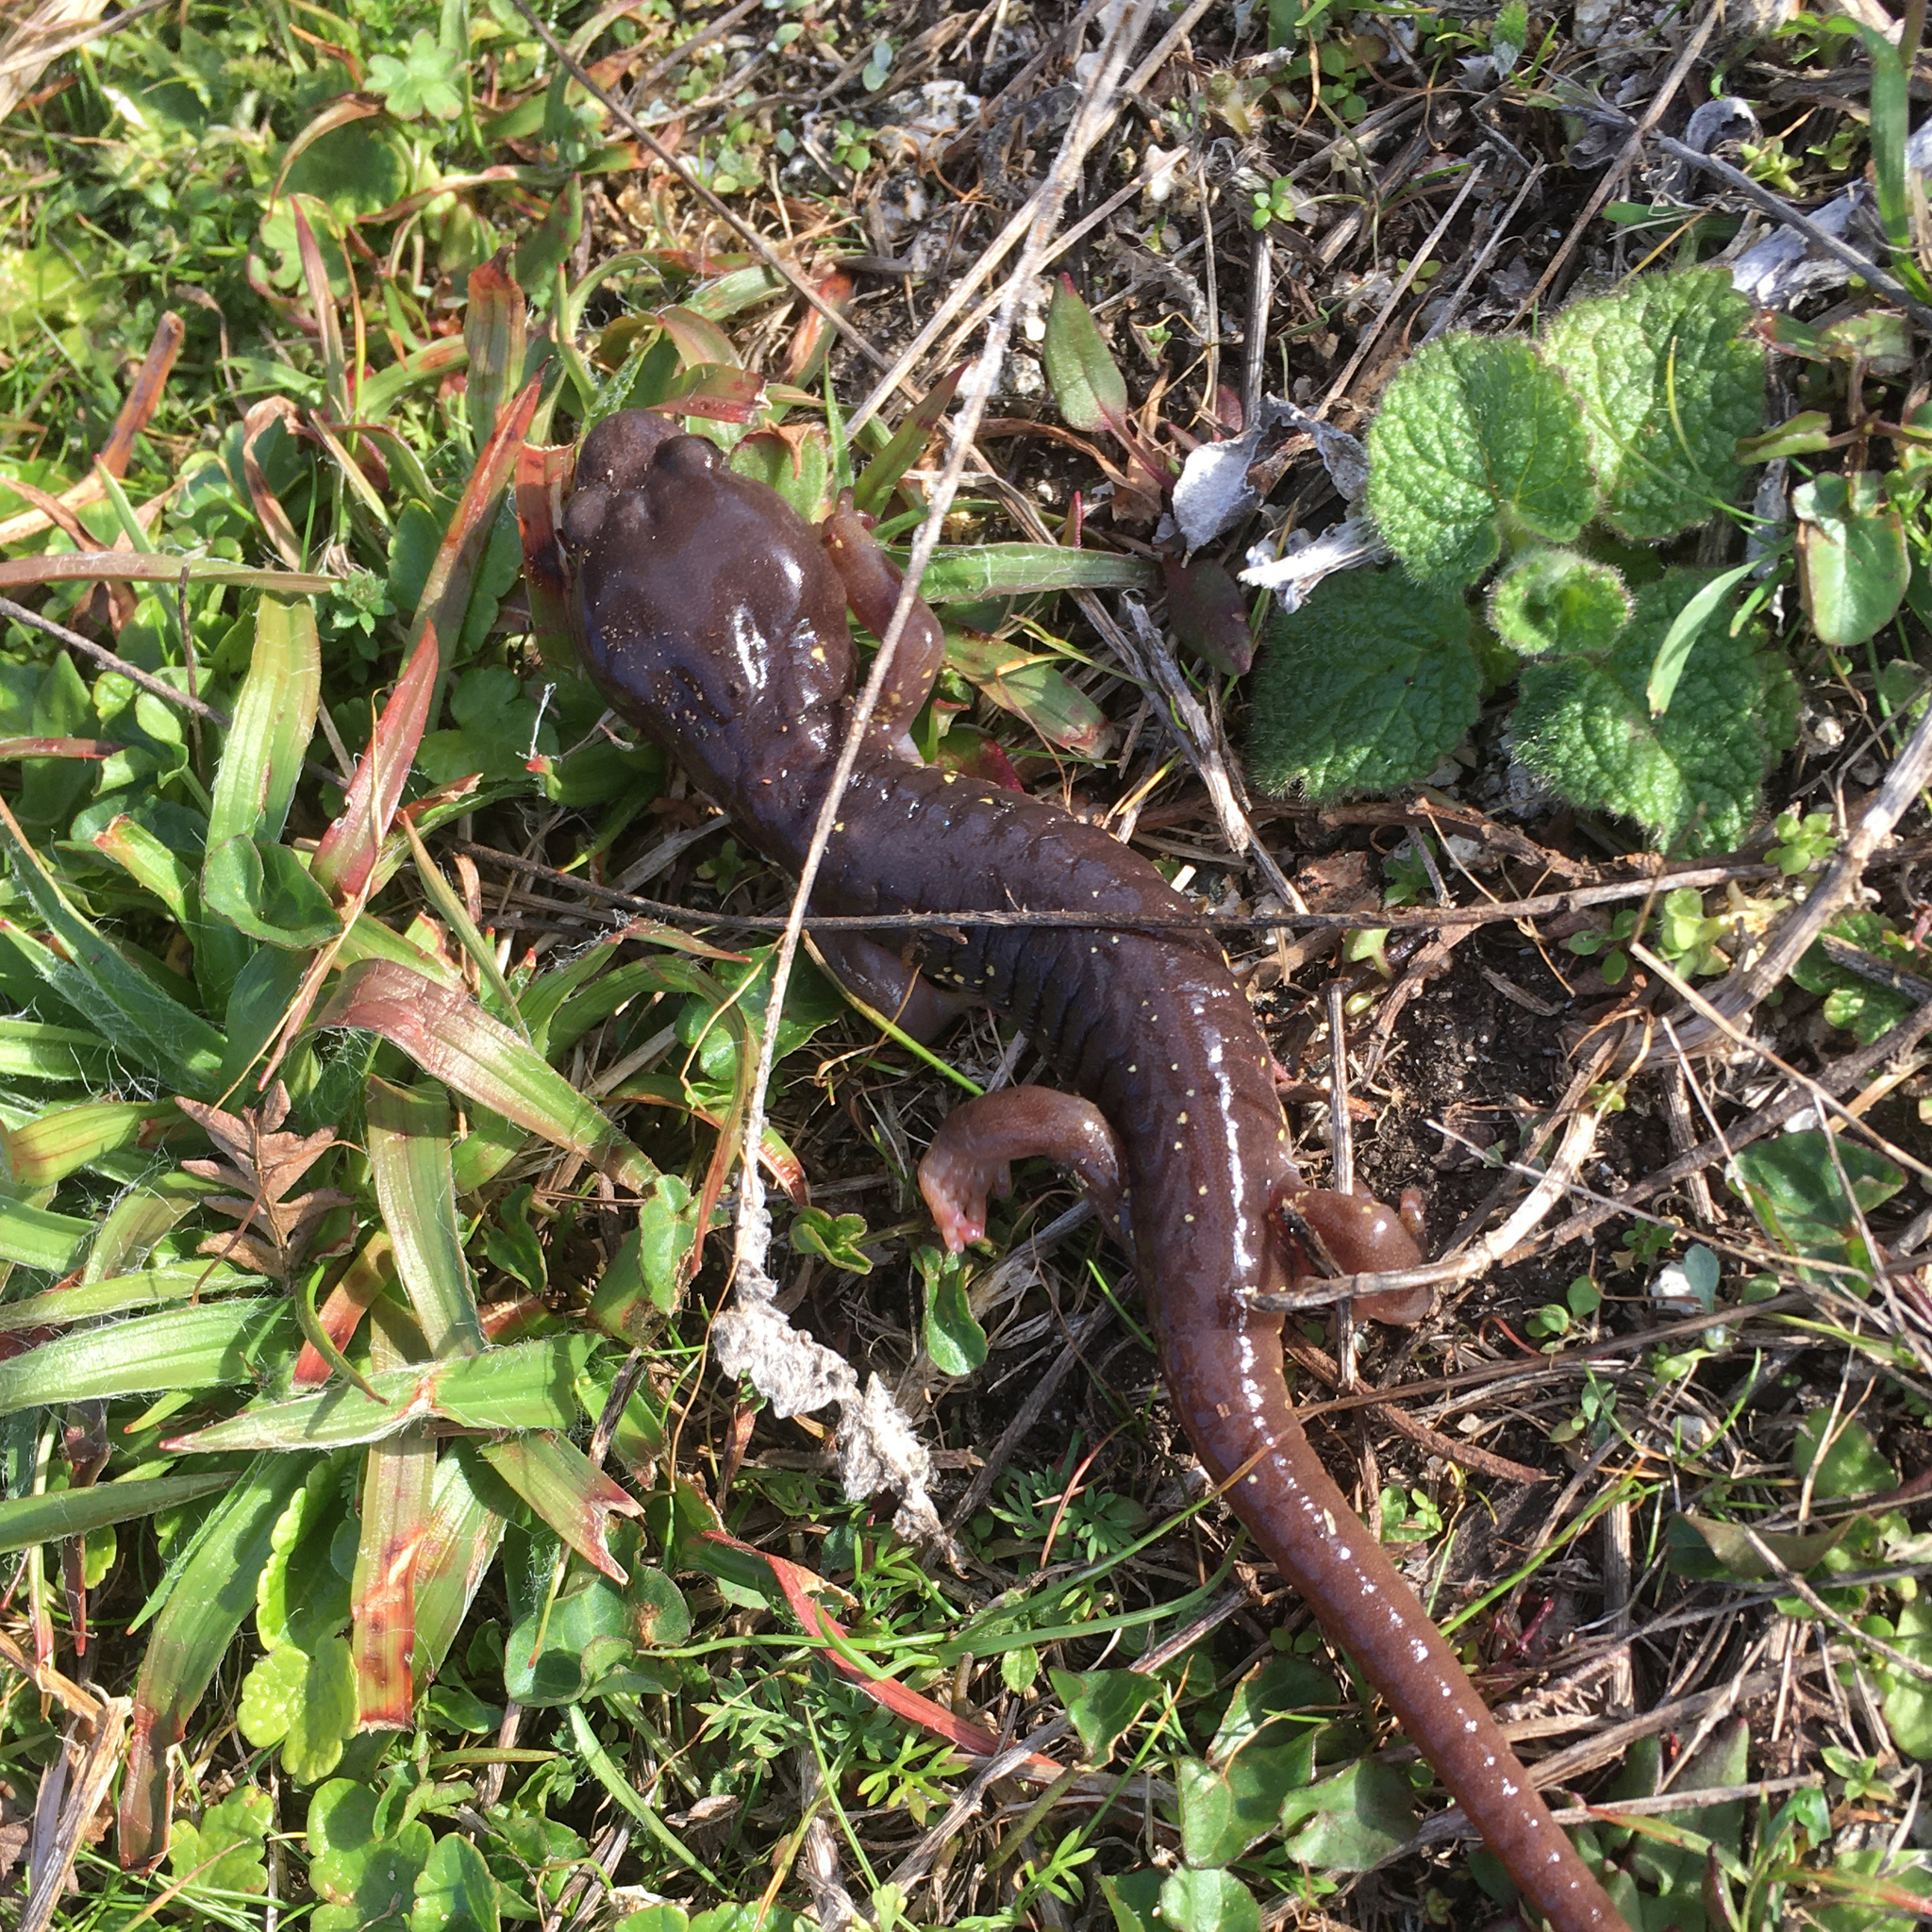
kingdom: Animalia
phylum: Chordata
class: Amphibia
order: Caudata
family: Plethodontidae
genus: Aneides
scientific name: Aneides lugubris
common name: Arboreal salamander
